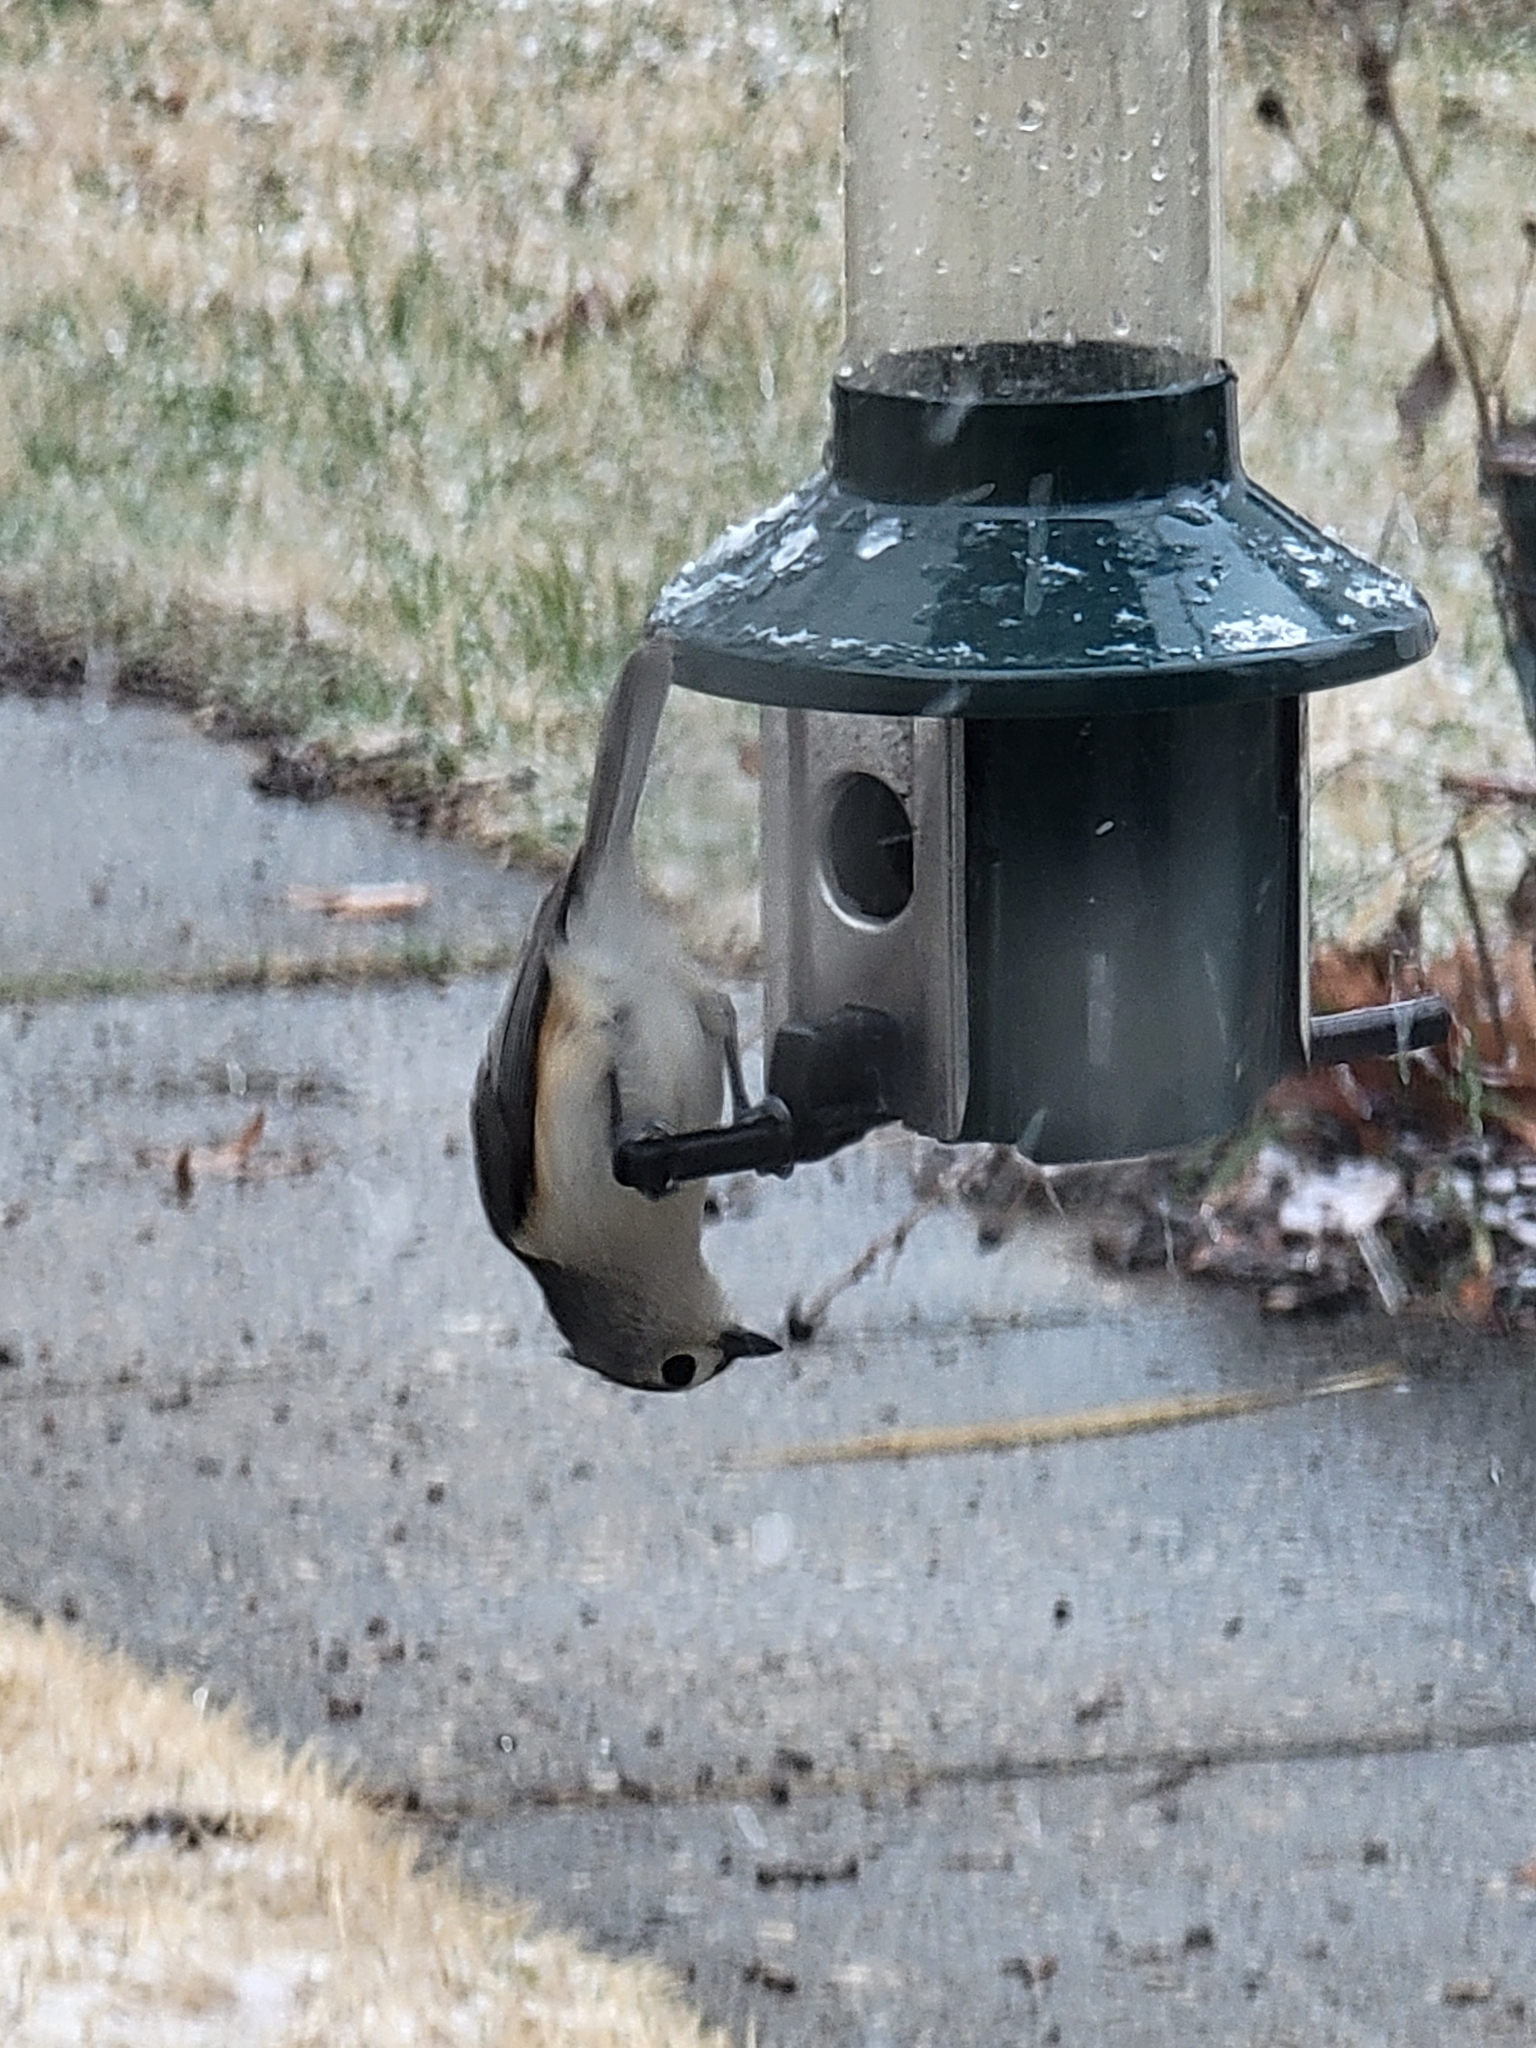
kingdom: Animalia
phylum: Chordata
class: Aves
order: Passeriformes
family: Paridae
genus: Baeolophus
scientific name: Baeolophus bicolor
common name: Tufted titmouse
